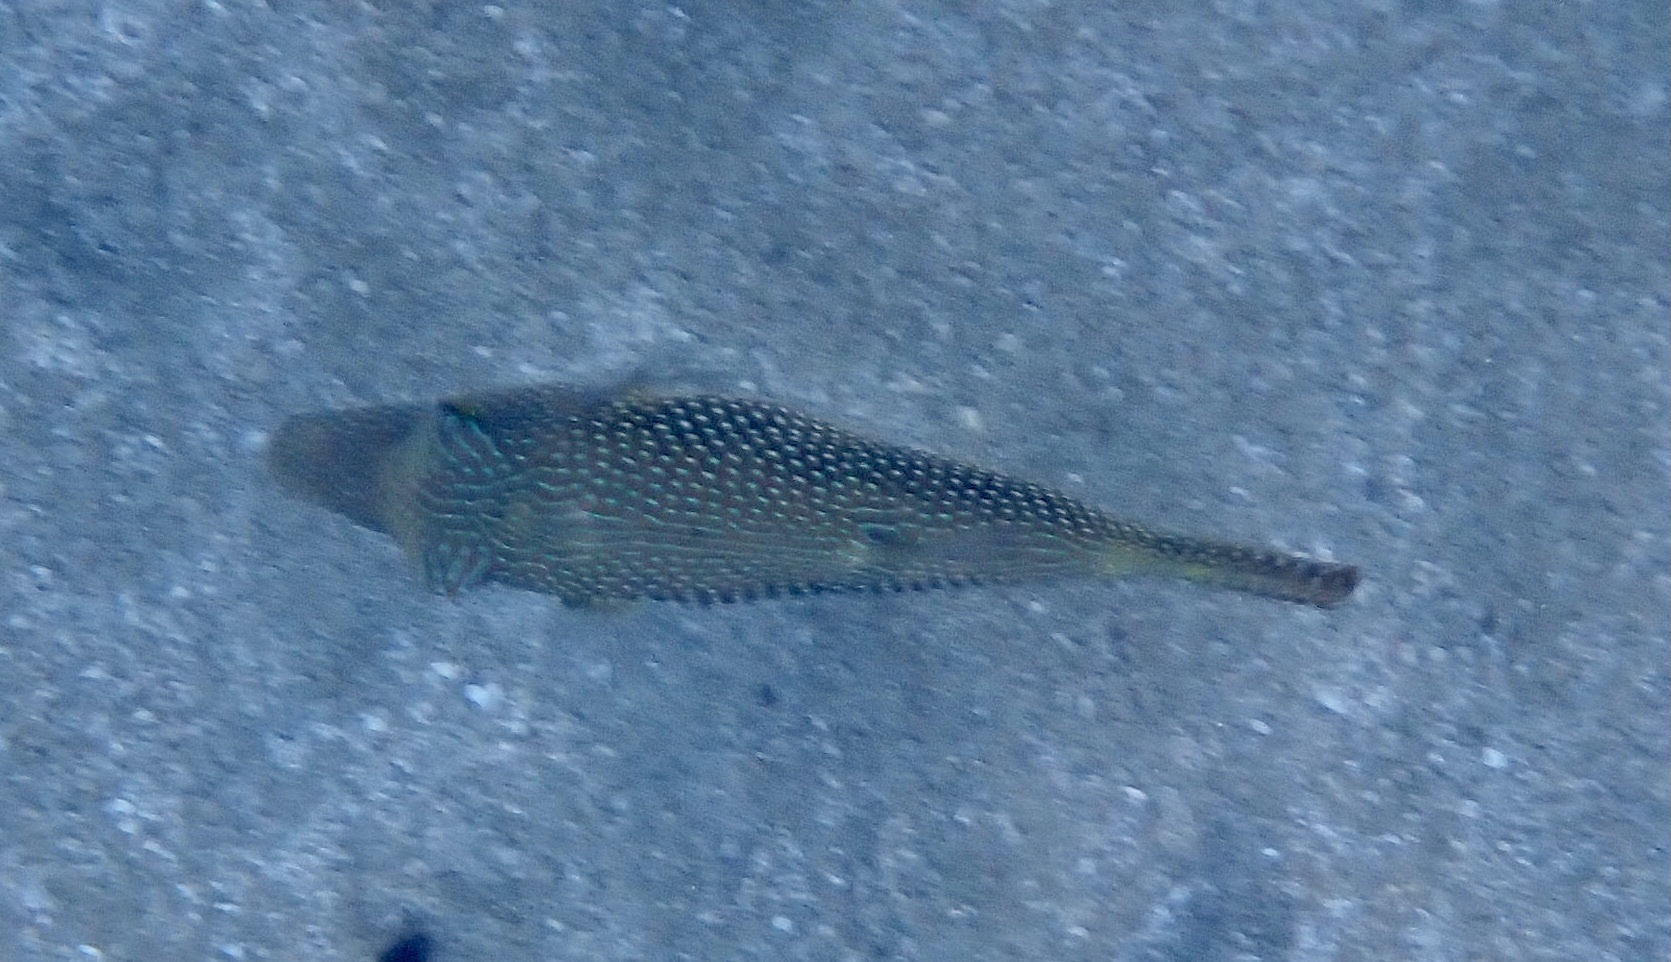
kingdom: Animalia
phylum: Chordata
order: Tetraodontiformes
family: Tetraodontidae
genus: Canthigaster
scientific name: Canthigaster margaritata
